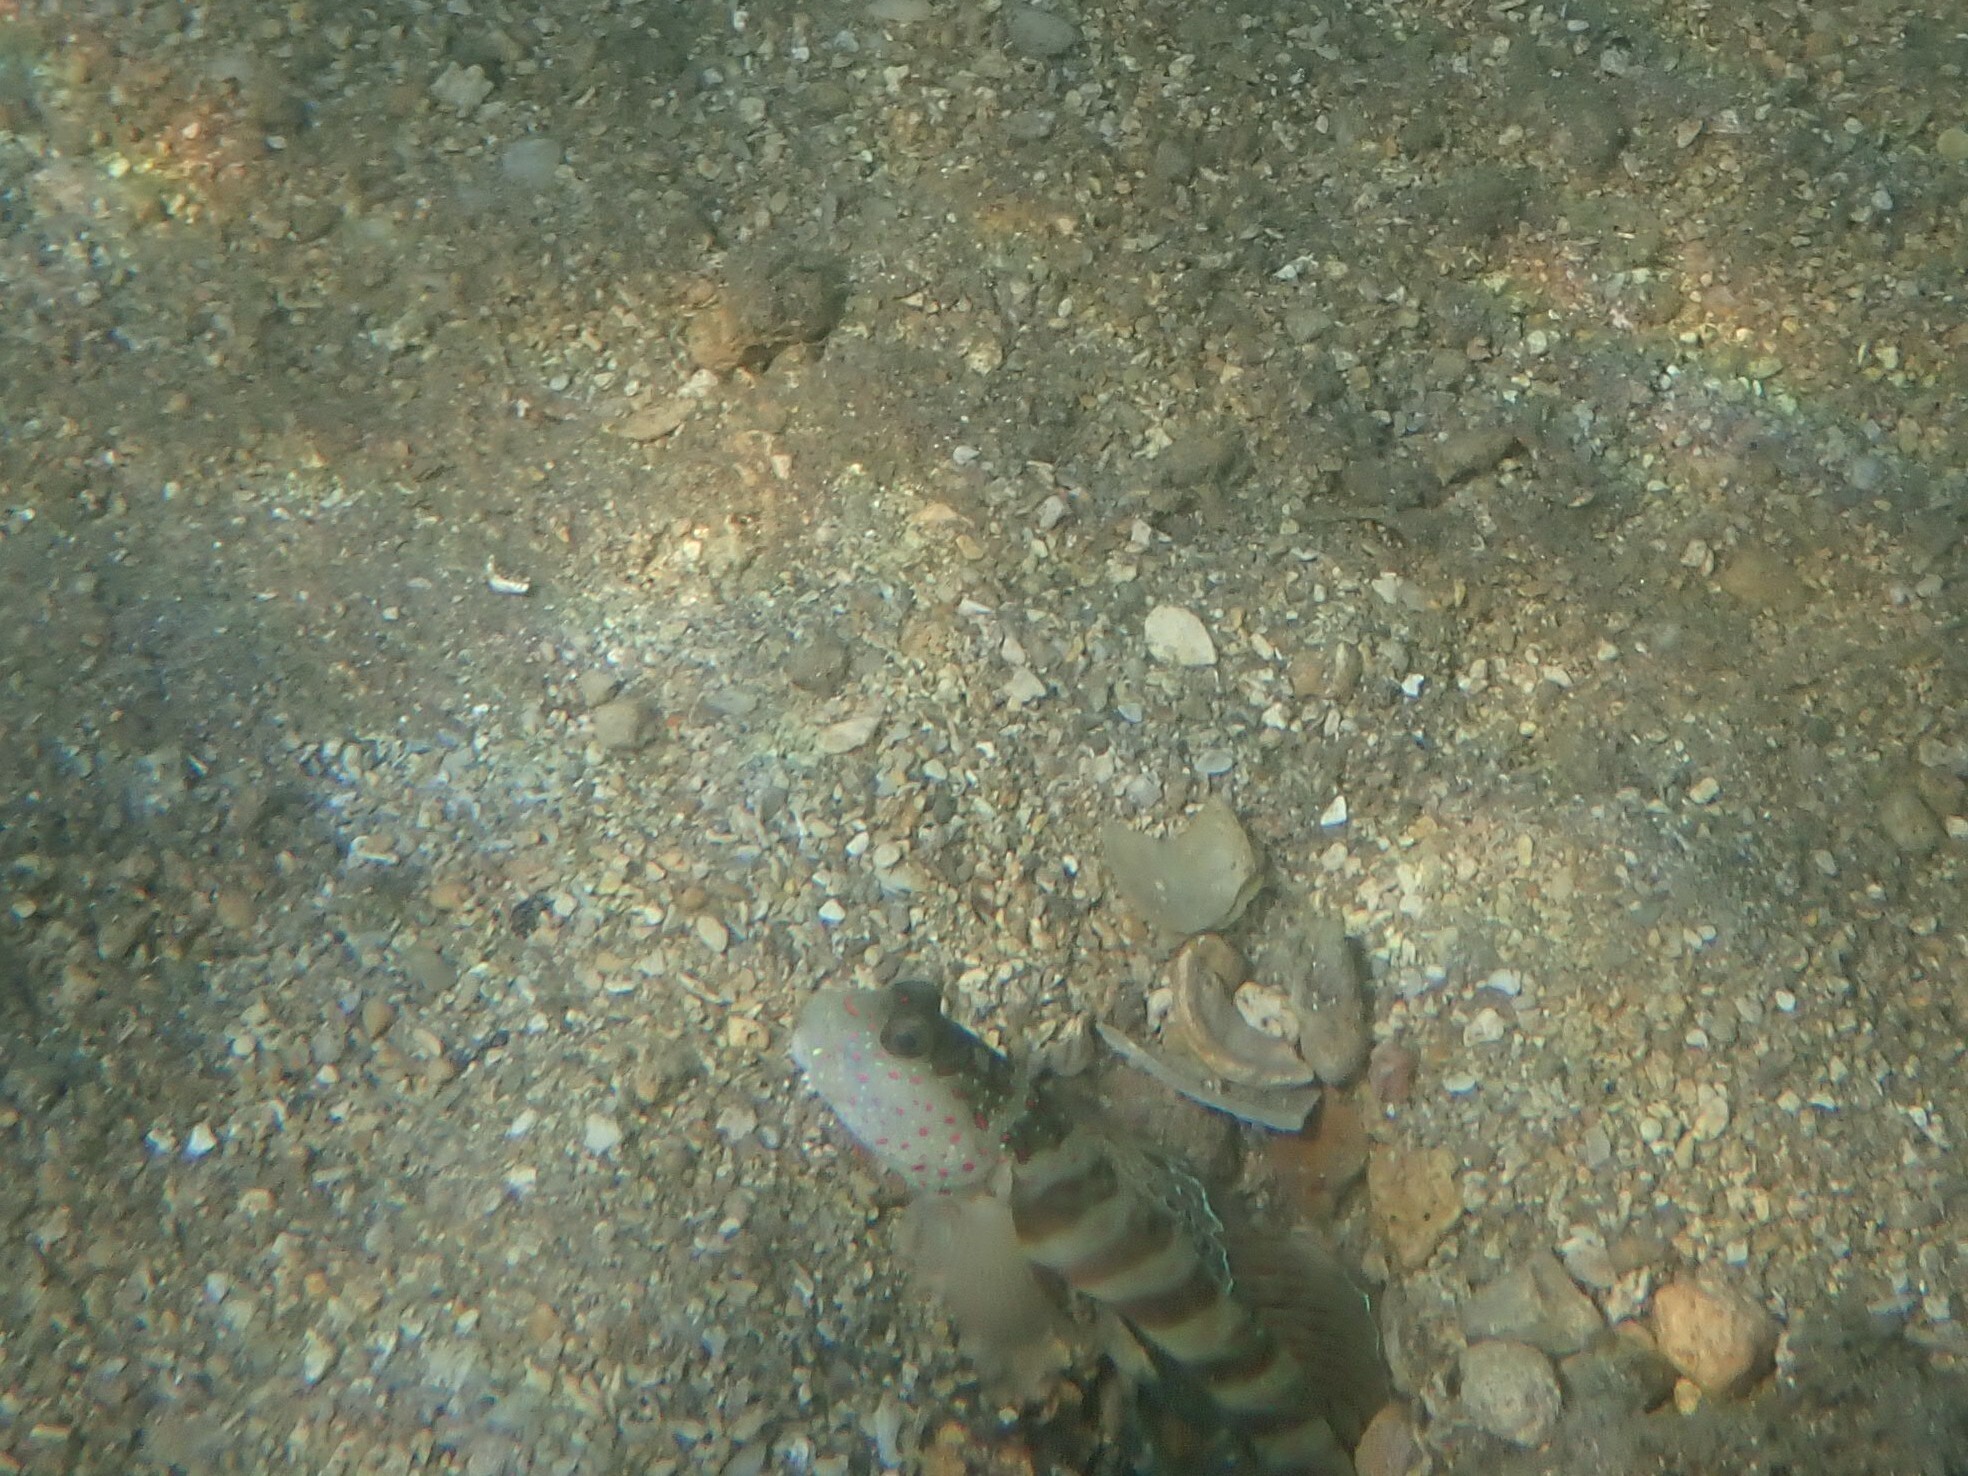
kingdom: Animalia
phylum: Chordata
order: Perciformes
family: Gobiidae
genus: Cryptocentrus
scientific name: Cryptocentrus leptocephalus
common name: Leptocephalus prawn-goby
